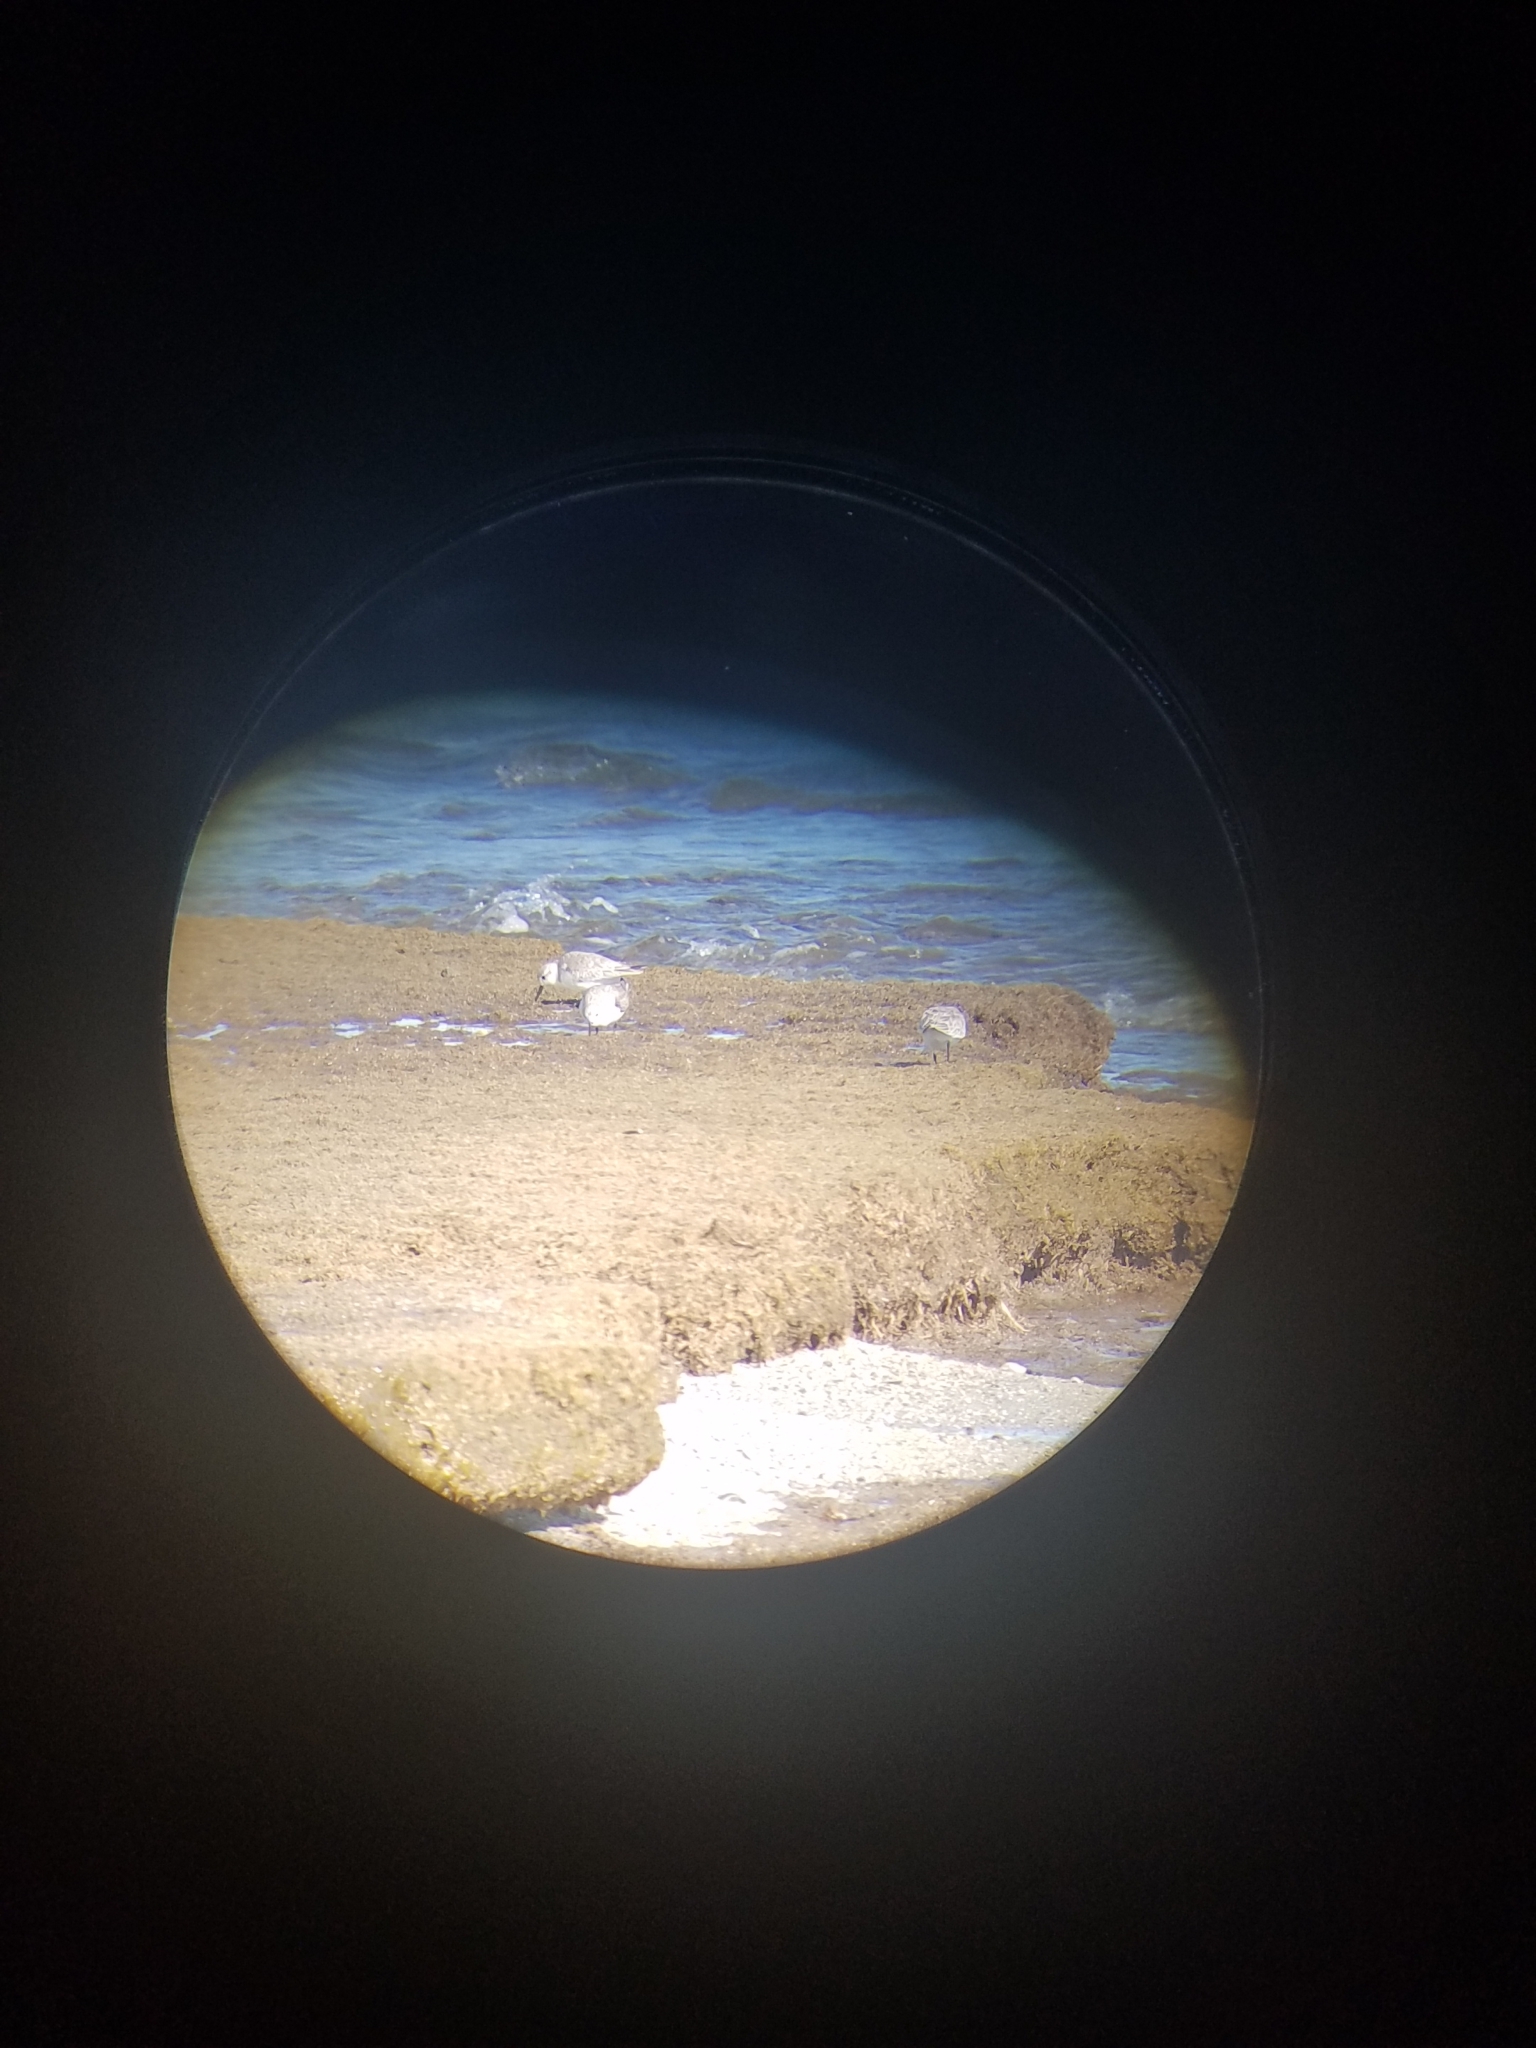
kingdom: Animalia
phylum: Chordata
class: Aves
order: Charadriiformes
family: Scolopacidae
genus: Calidris
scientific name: Calidris alba
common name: Sanderling
